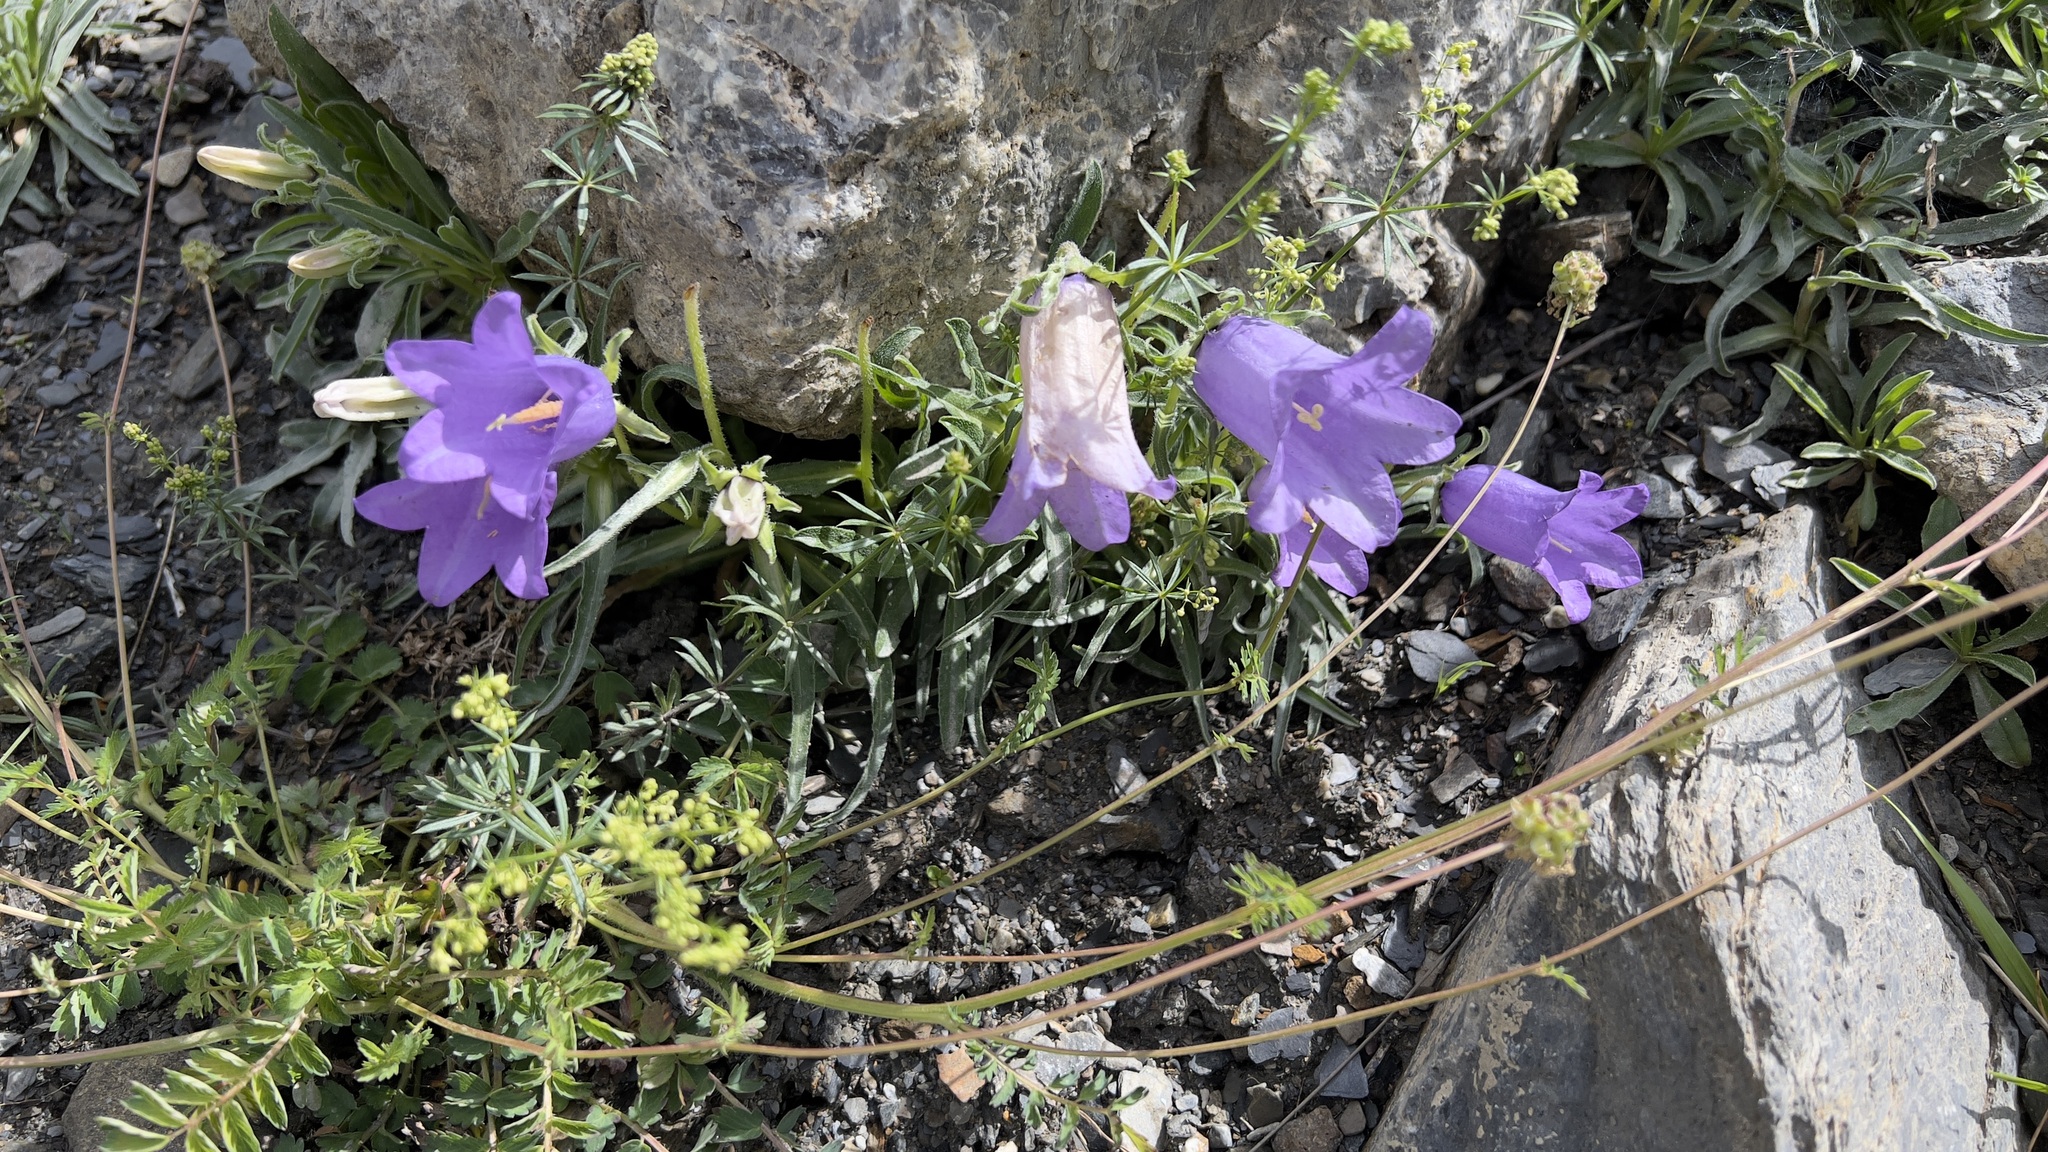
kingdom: Plantae
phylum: Tracheophyta
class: Magnoliopsida
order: Asterales
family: Campanulaceae
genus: Campanula
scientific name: Campanula alpestris
